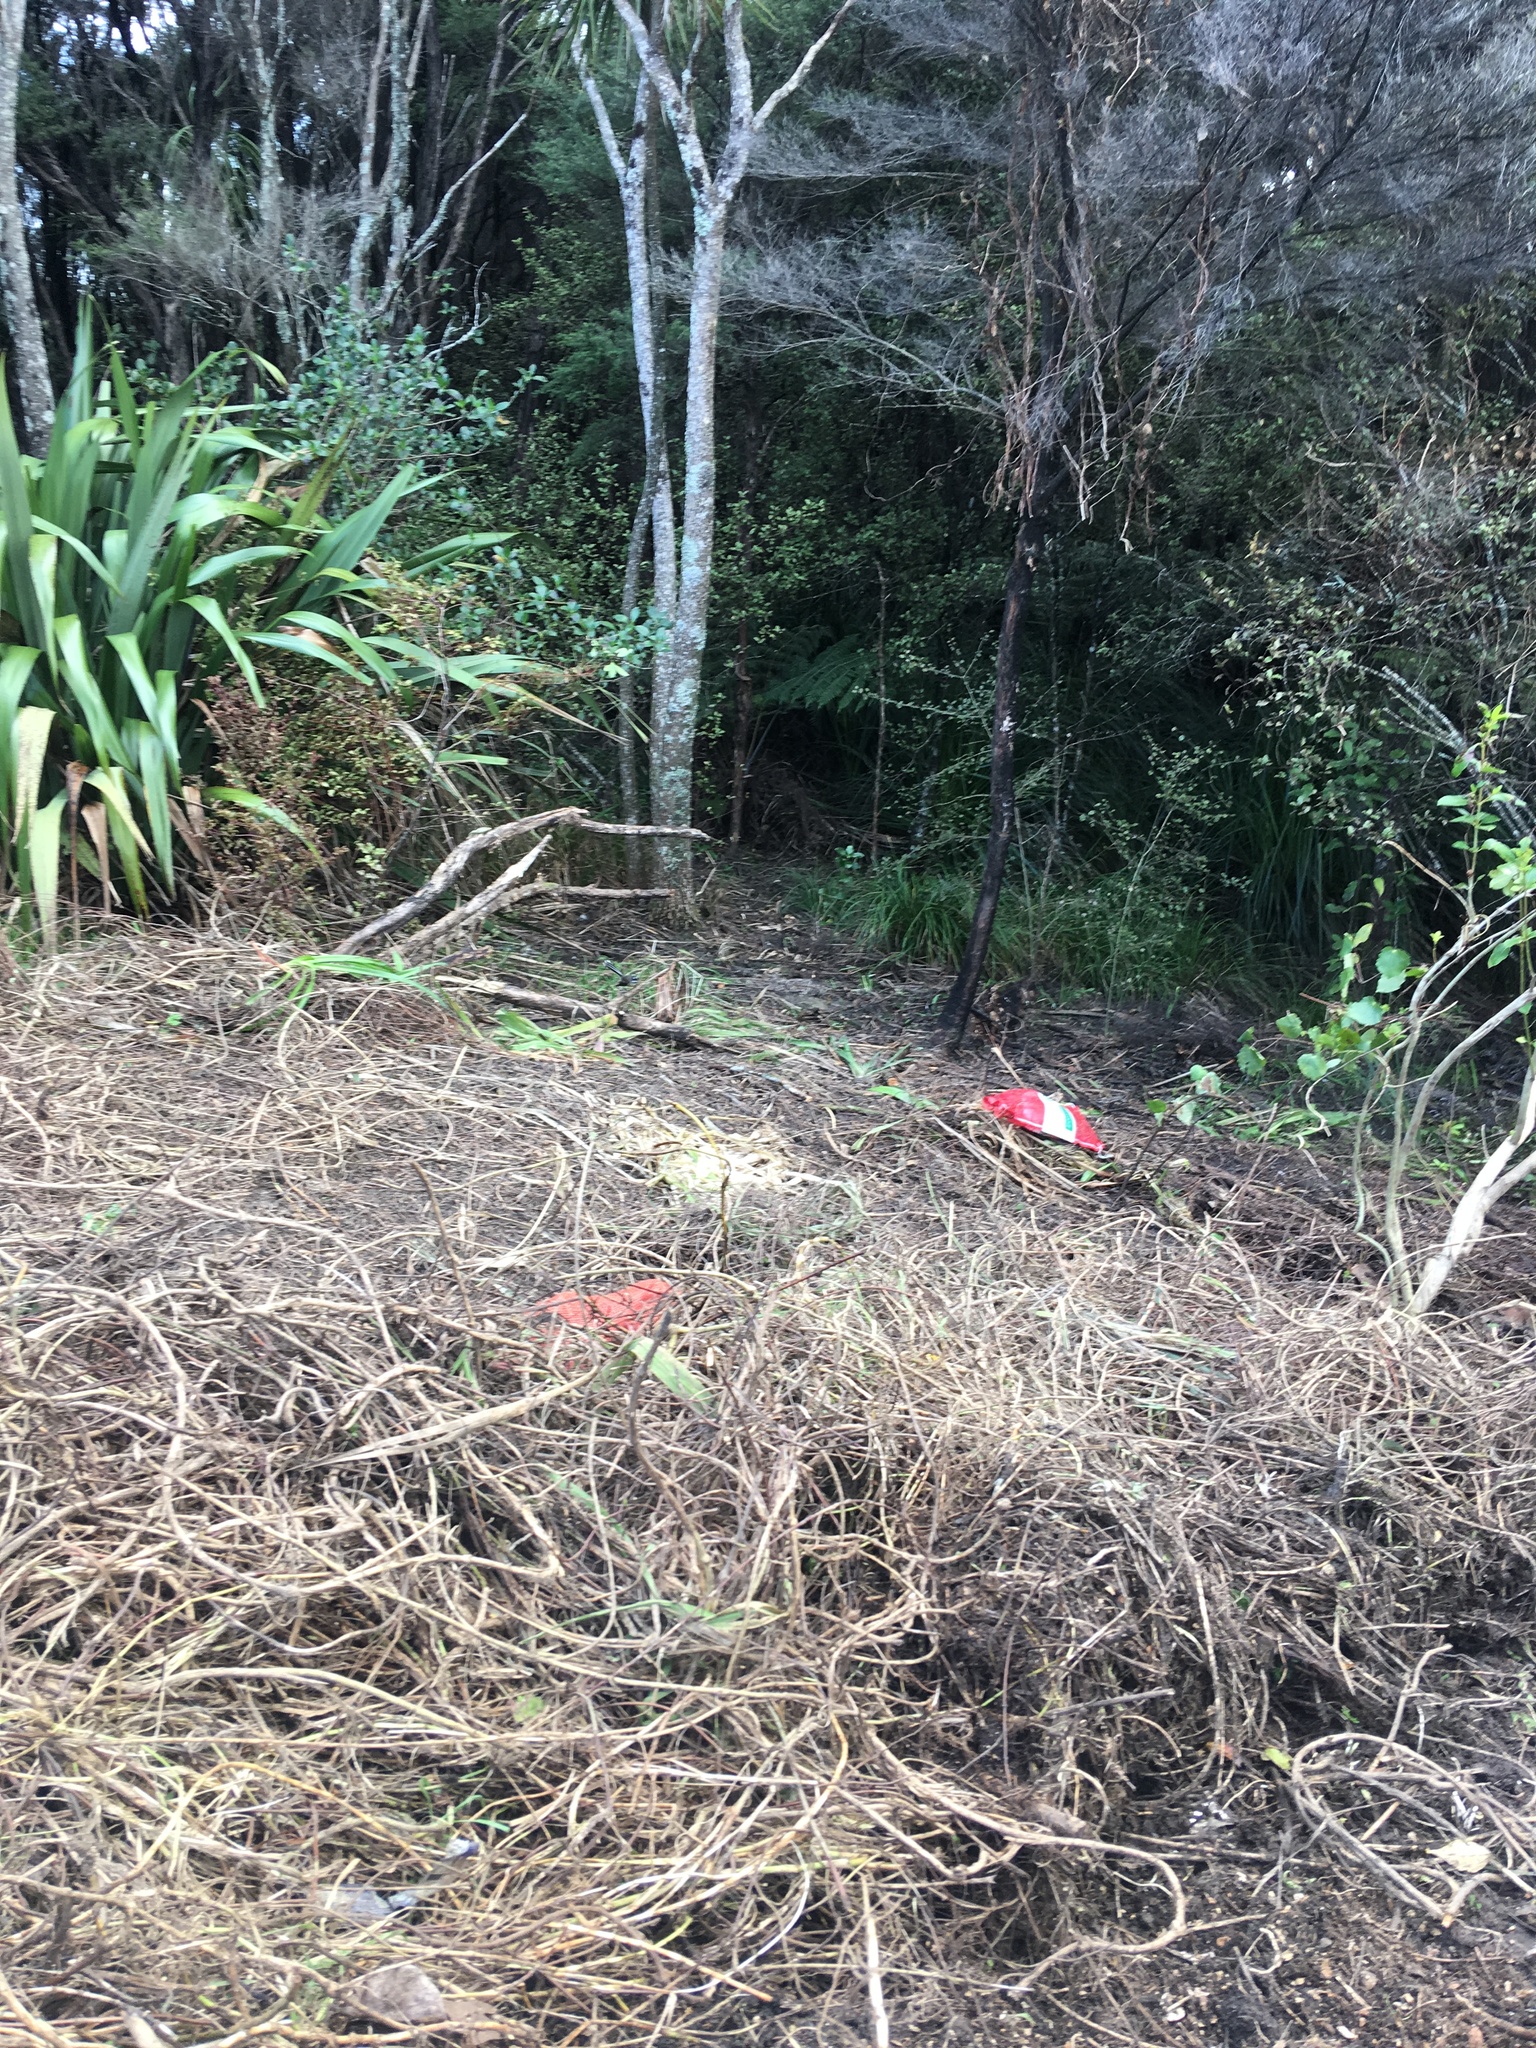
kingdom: Plantae
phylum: Tracheophyta
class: Magnoliopsida
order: Ericales
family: Primulaceae
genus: Myrsine
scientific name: Myrsine australis
